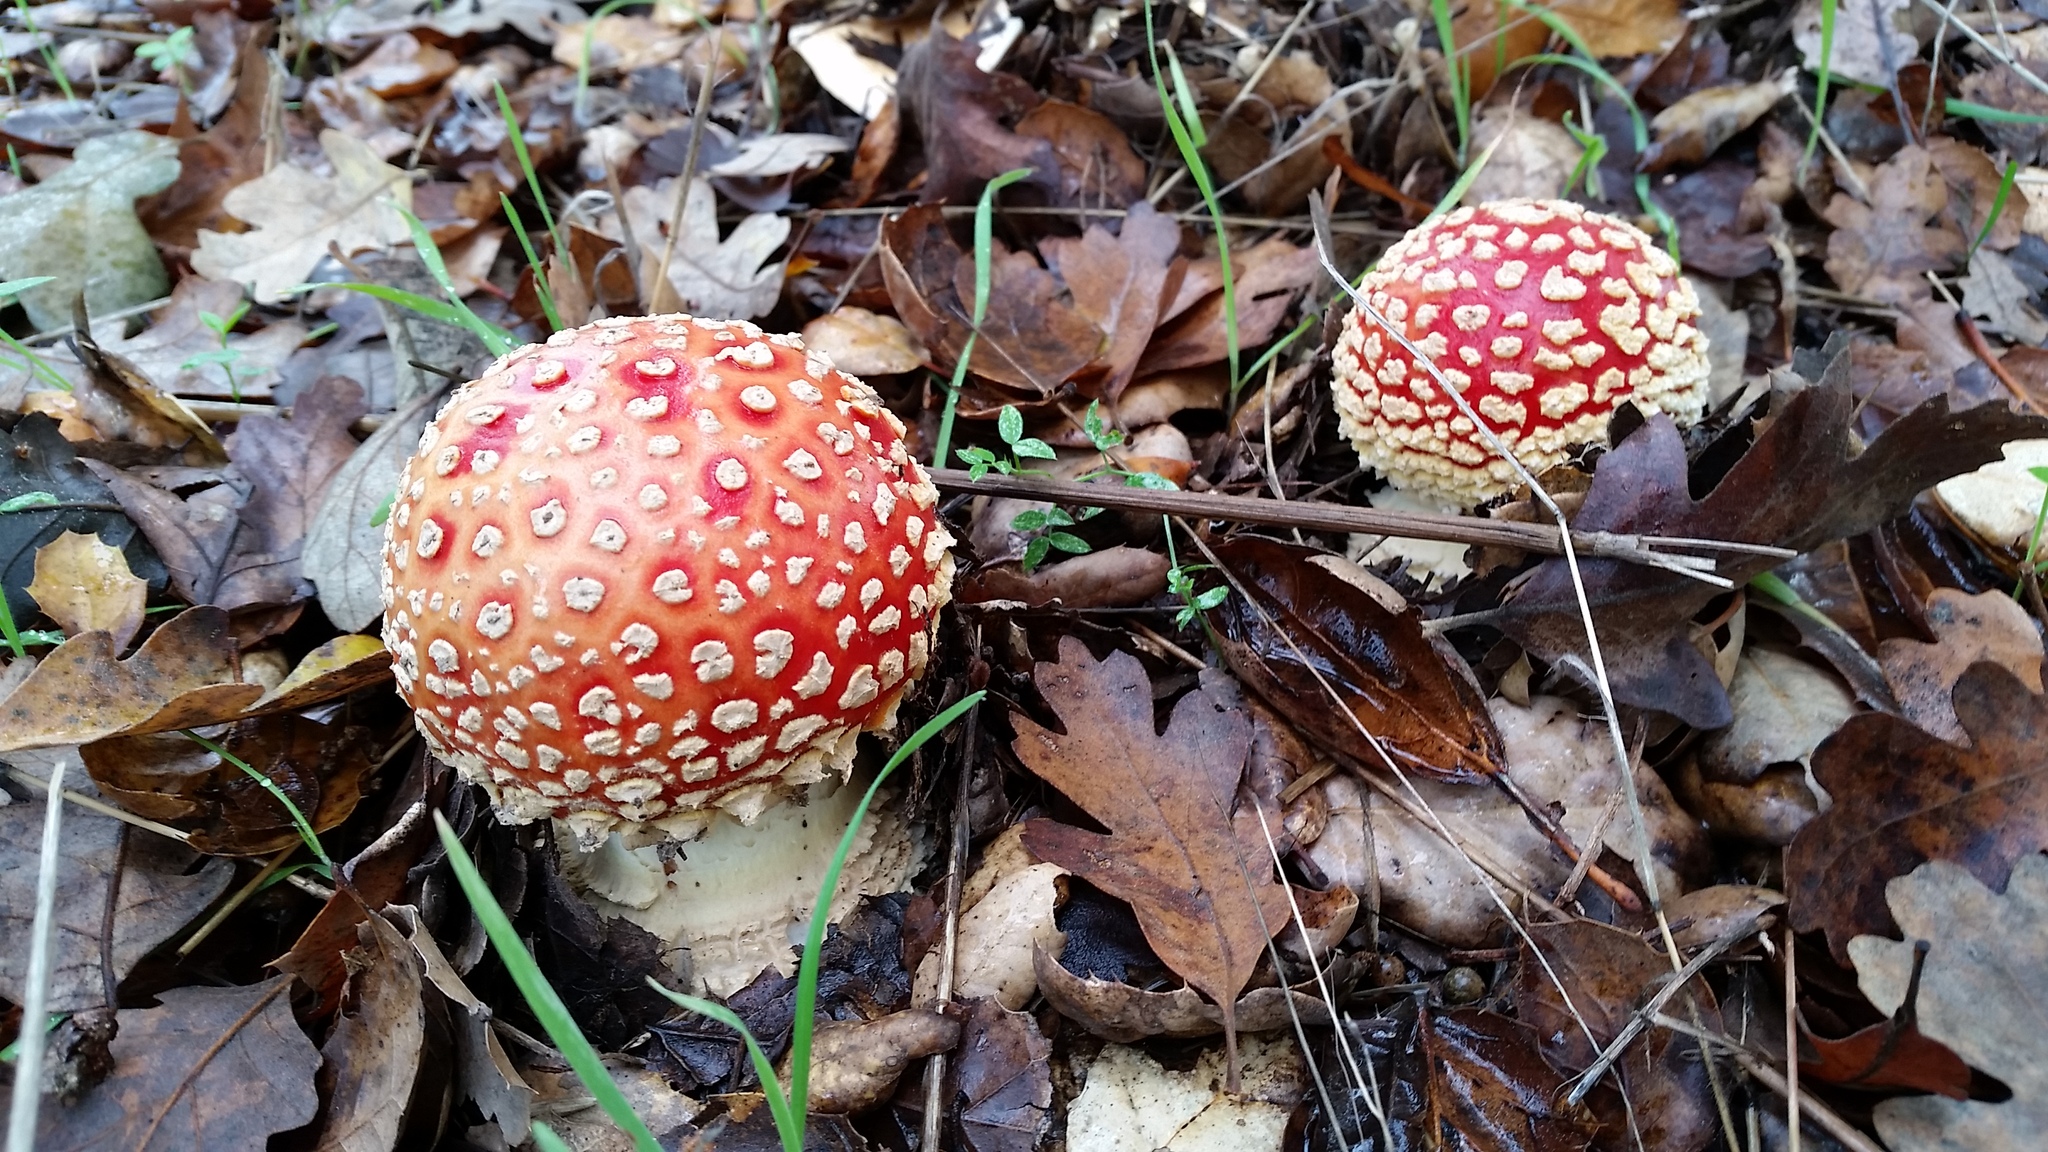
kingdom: Fungi
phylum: Basidiomycota
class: Agaricomycetes
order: Agaricales
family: Amanitaceae
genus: Amanita
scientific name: Amanita muscaria
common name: Fly agaric
